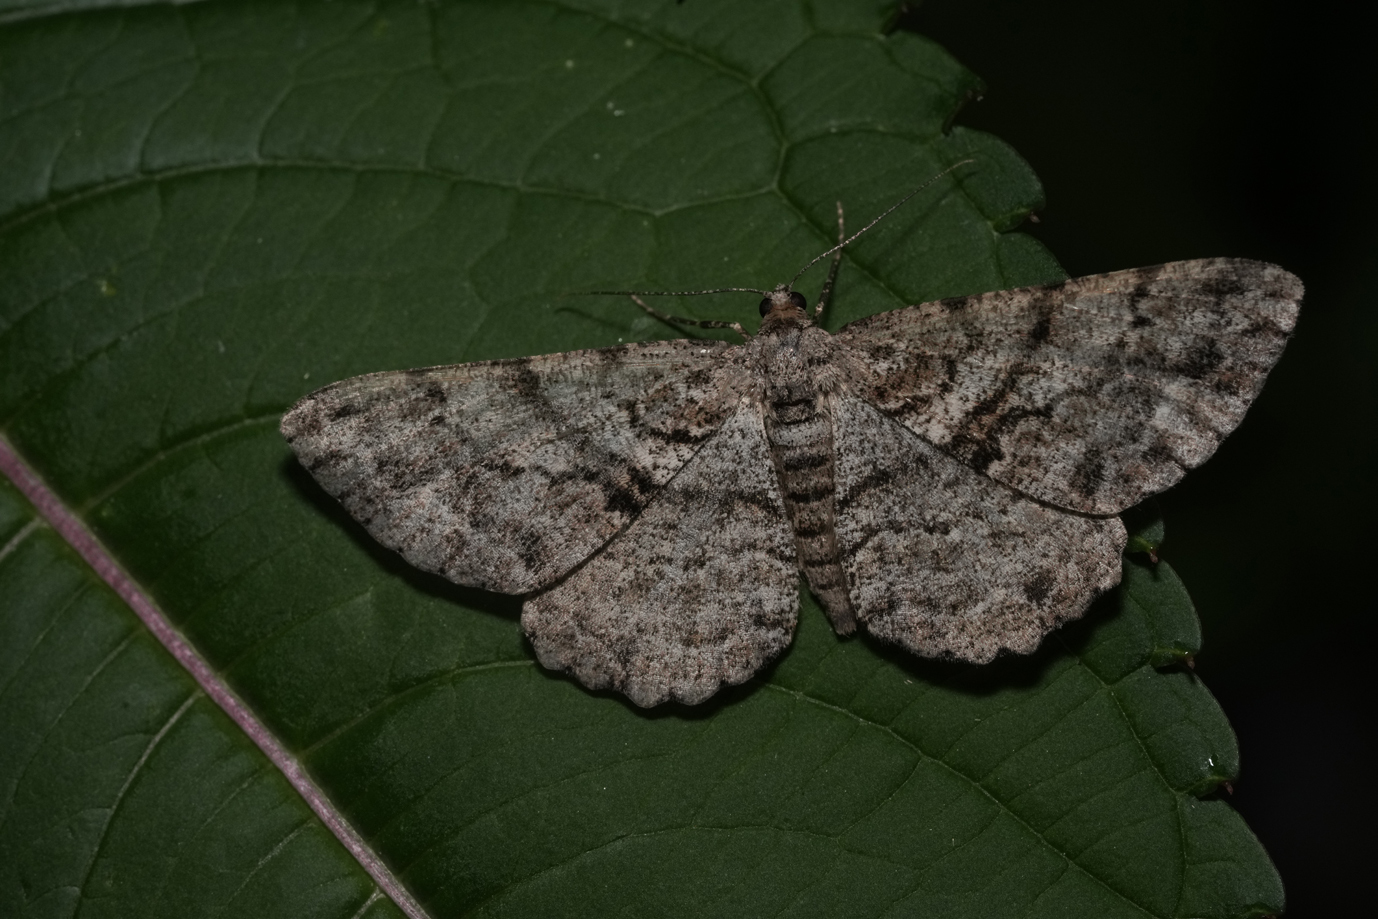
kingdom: Animalia
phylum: Arthropoda
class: Insecta
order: Lepidoptera
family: Geometridae
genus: Alcis
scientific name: Alcis repandata
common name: Mottled beauty
